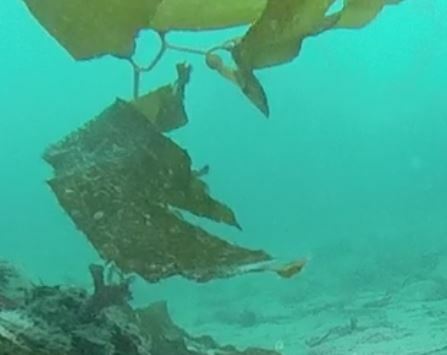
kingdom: Chromista
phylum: Ochrophyta
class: Phaeophyceae
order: Laminariales
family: Laminariaceae
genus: Macrocystis
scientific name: Macrocystis pyrifera
